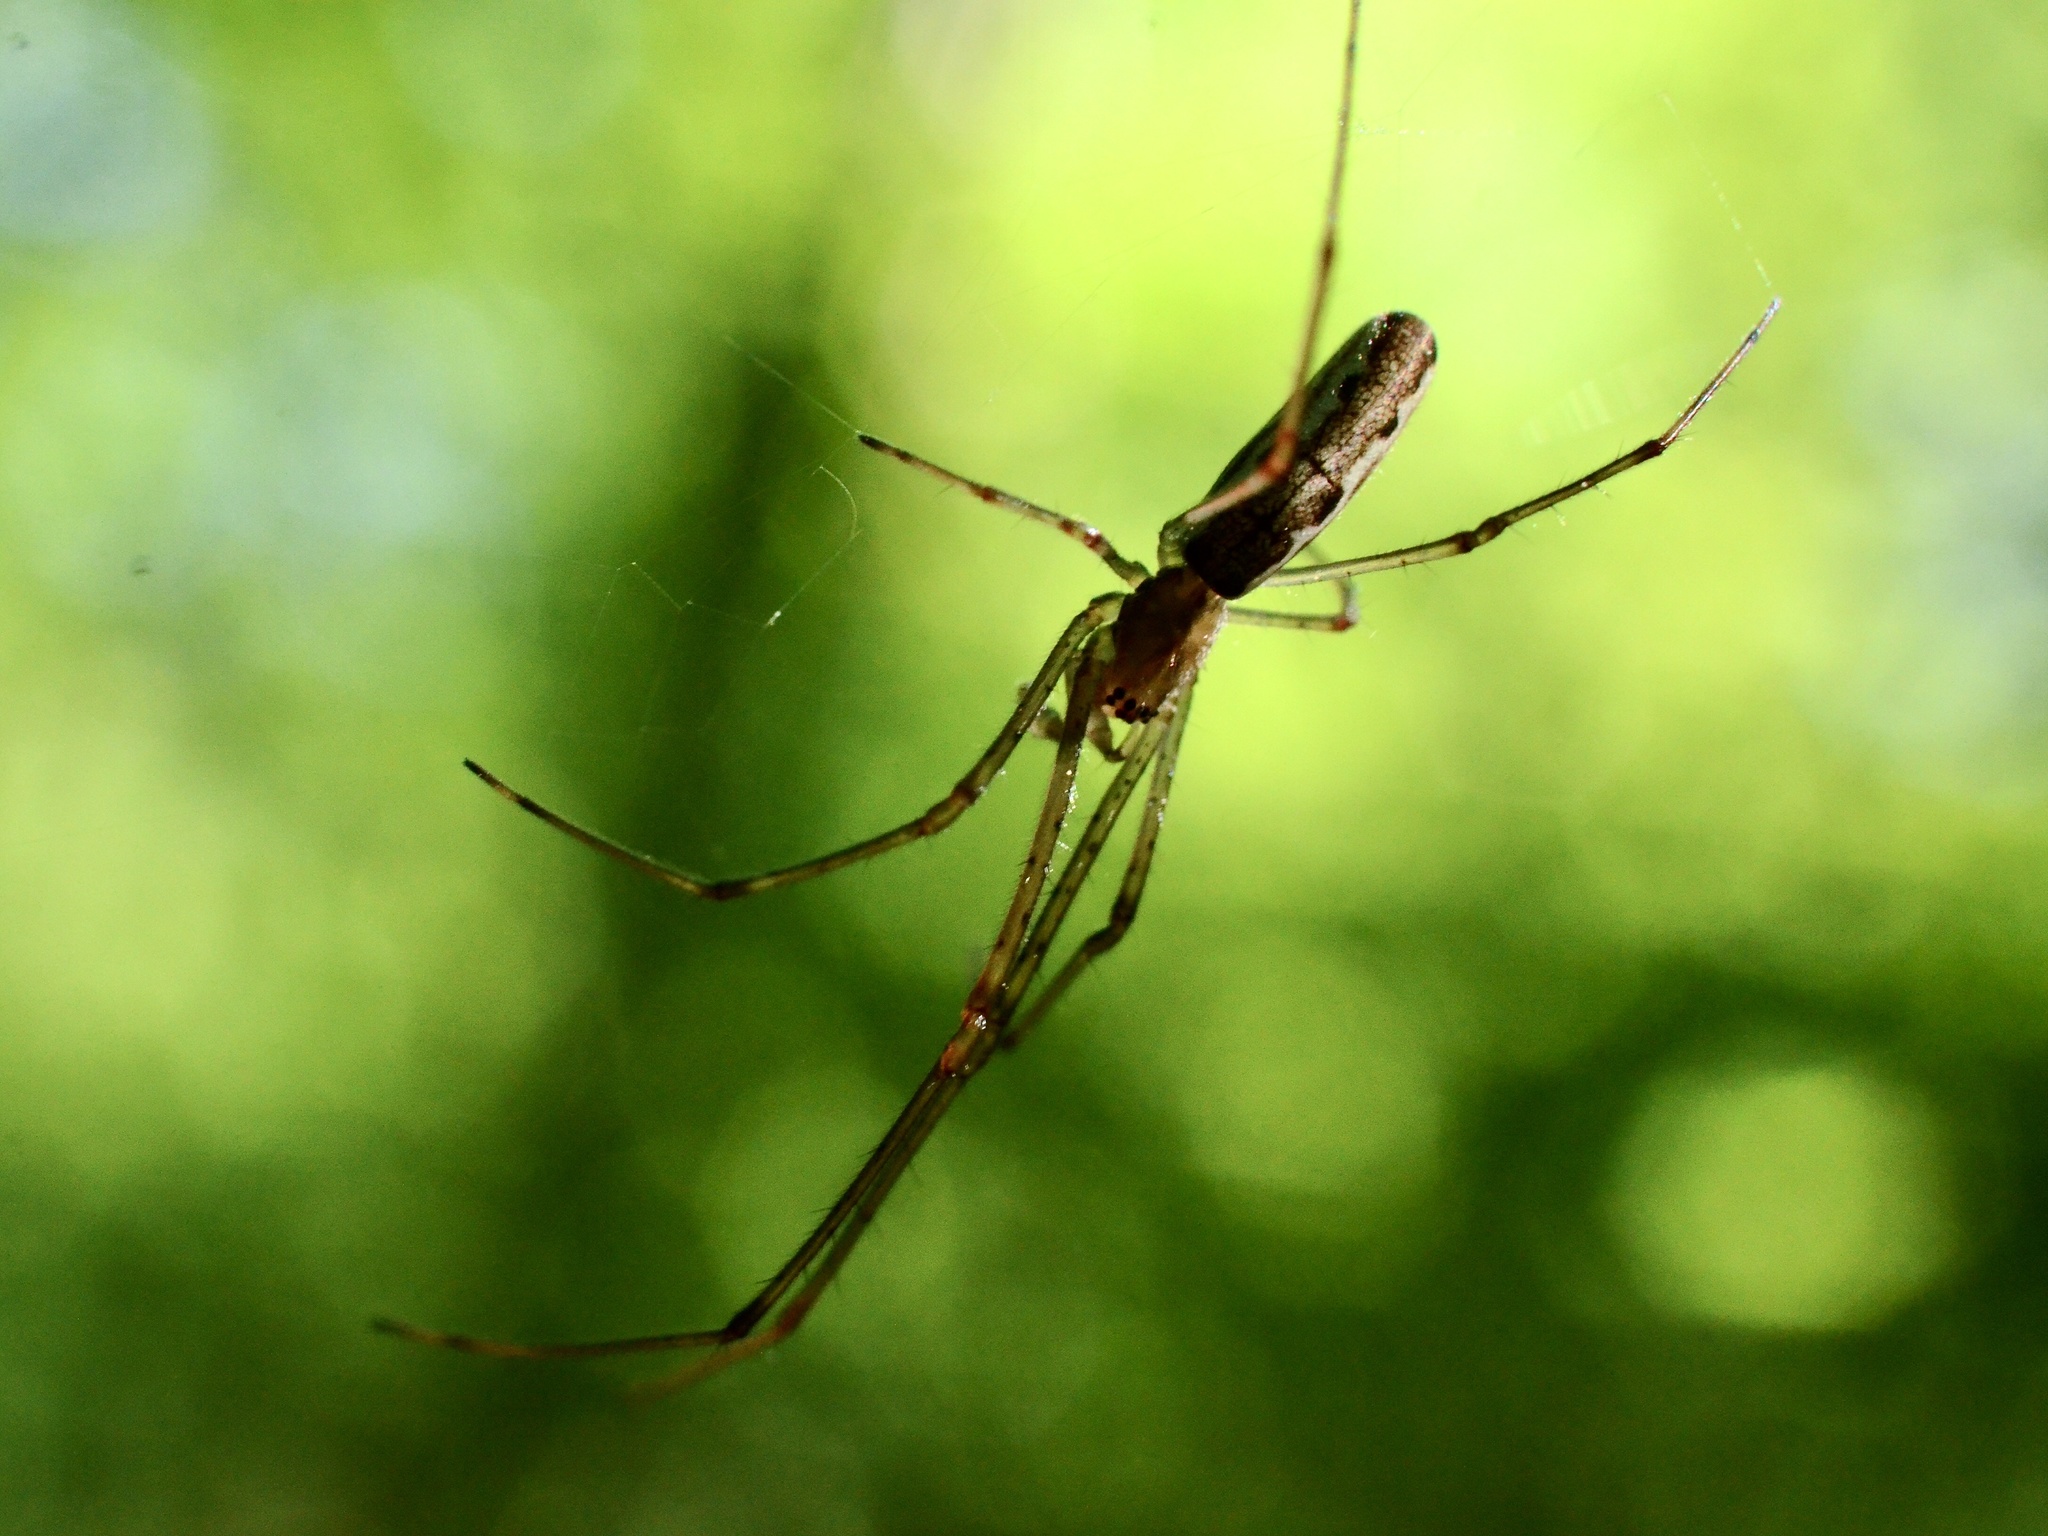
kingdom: Animalia
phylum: Arthropoda
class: Arachnida
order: Araneae
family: Tetragnathidae
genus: Tetragnatha
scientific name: Tetragnatha extensa
